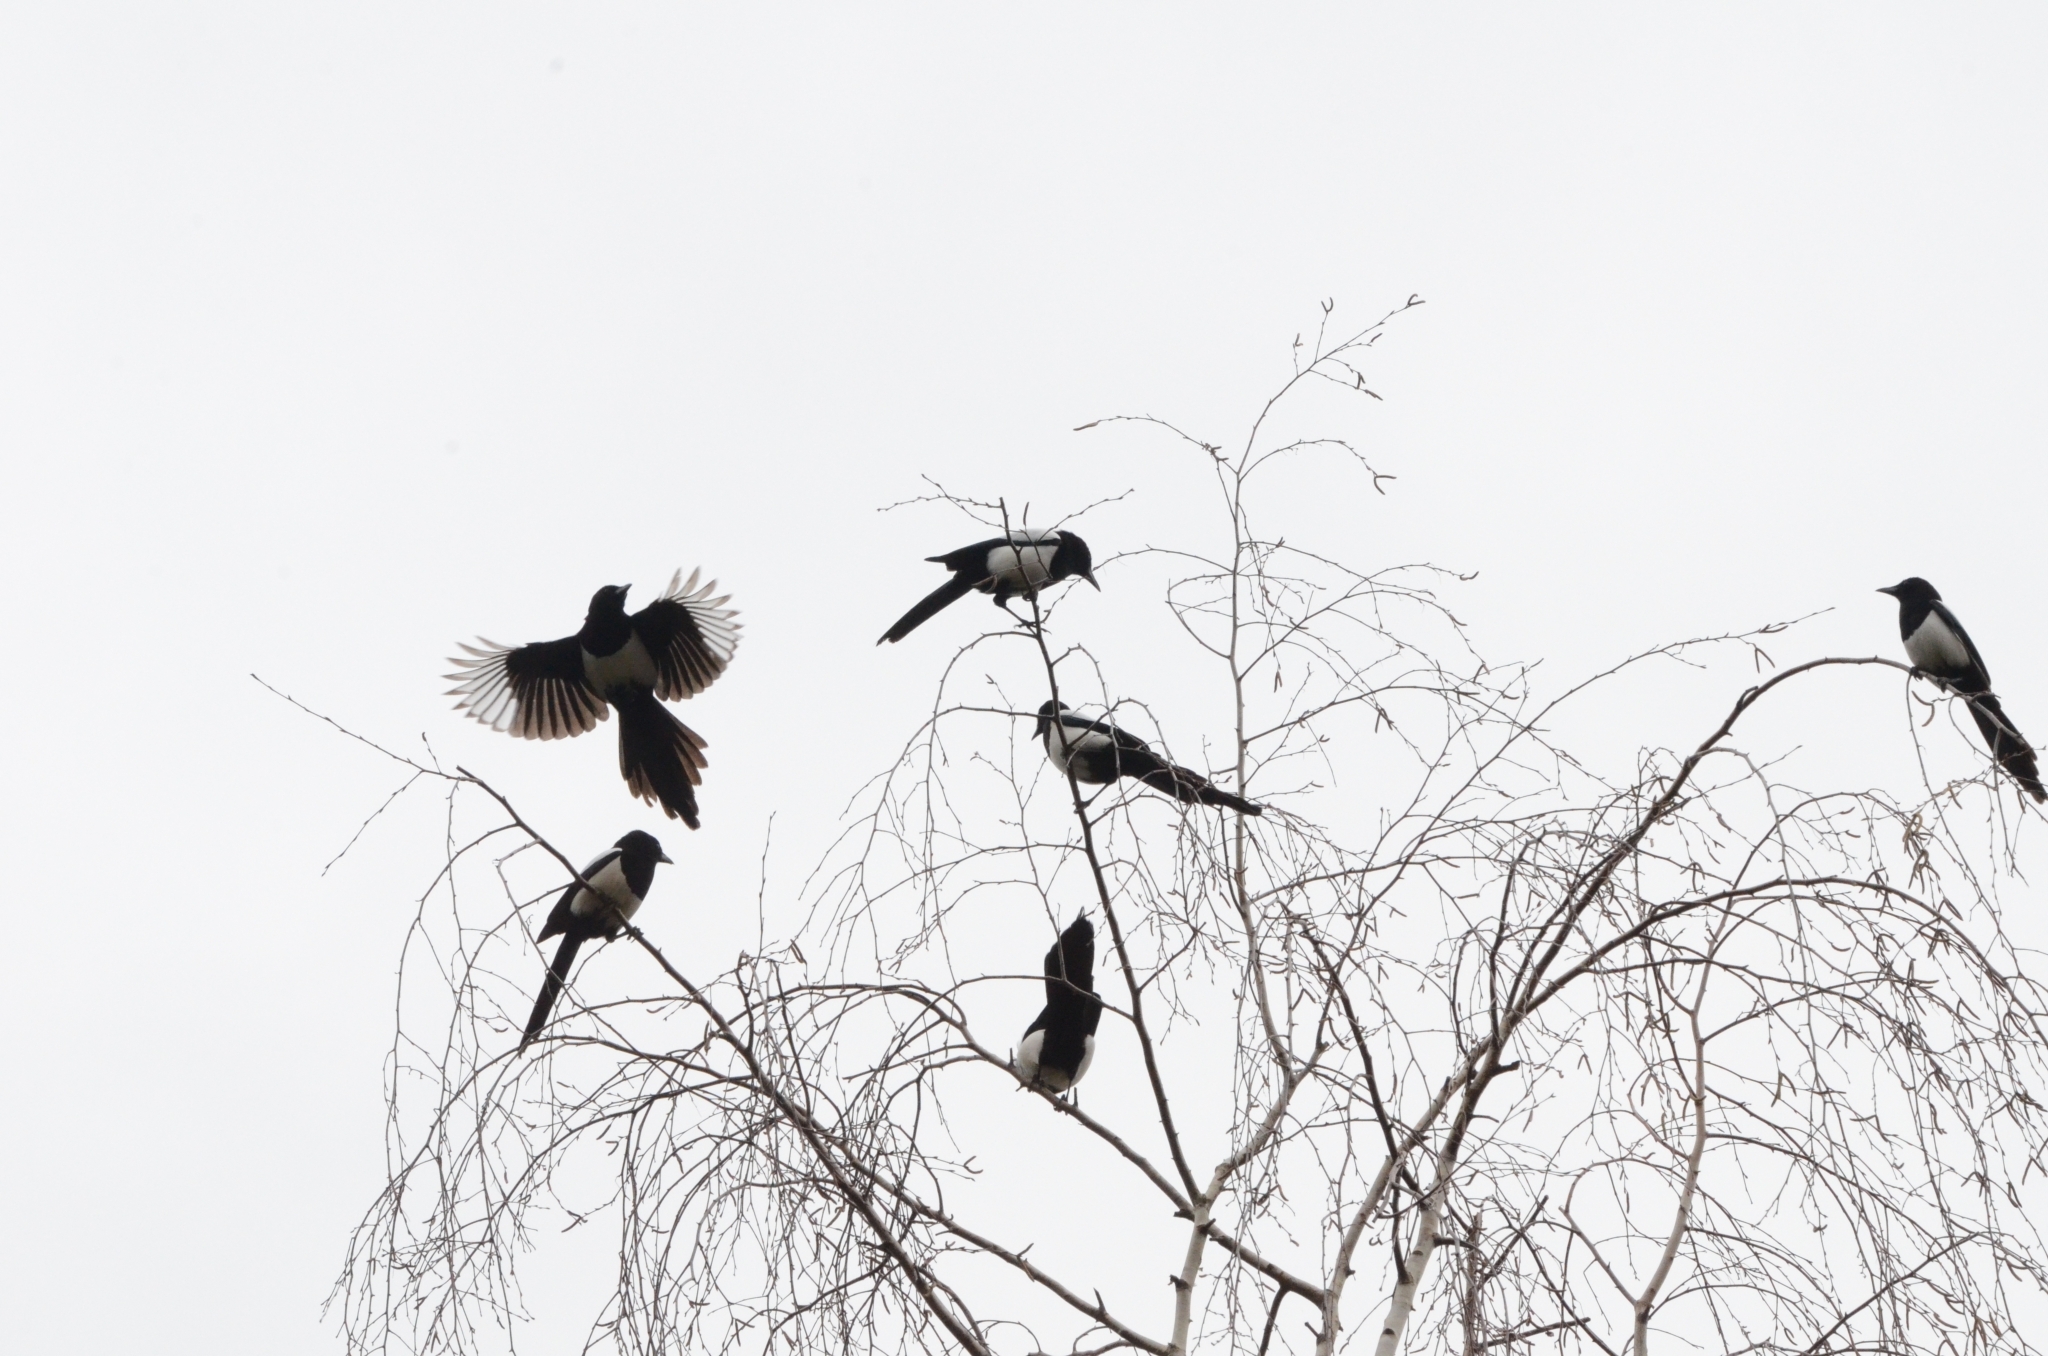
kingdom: Animalia
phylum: Chordata
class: Aves
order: Passeriformes
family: Corvidae
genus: Pica
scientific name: Pica pica
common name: Eurasian magpie
